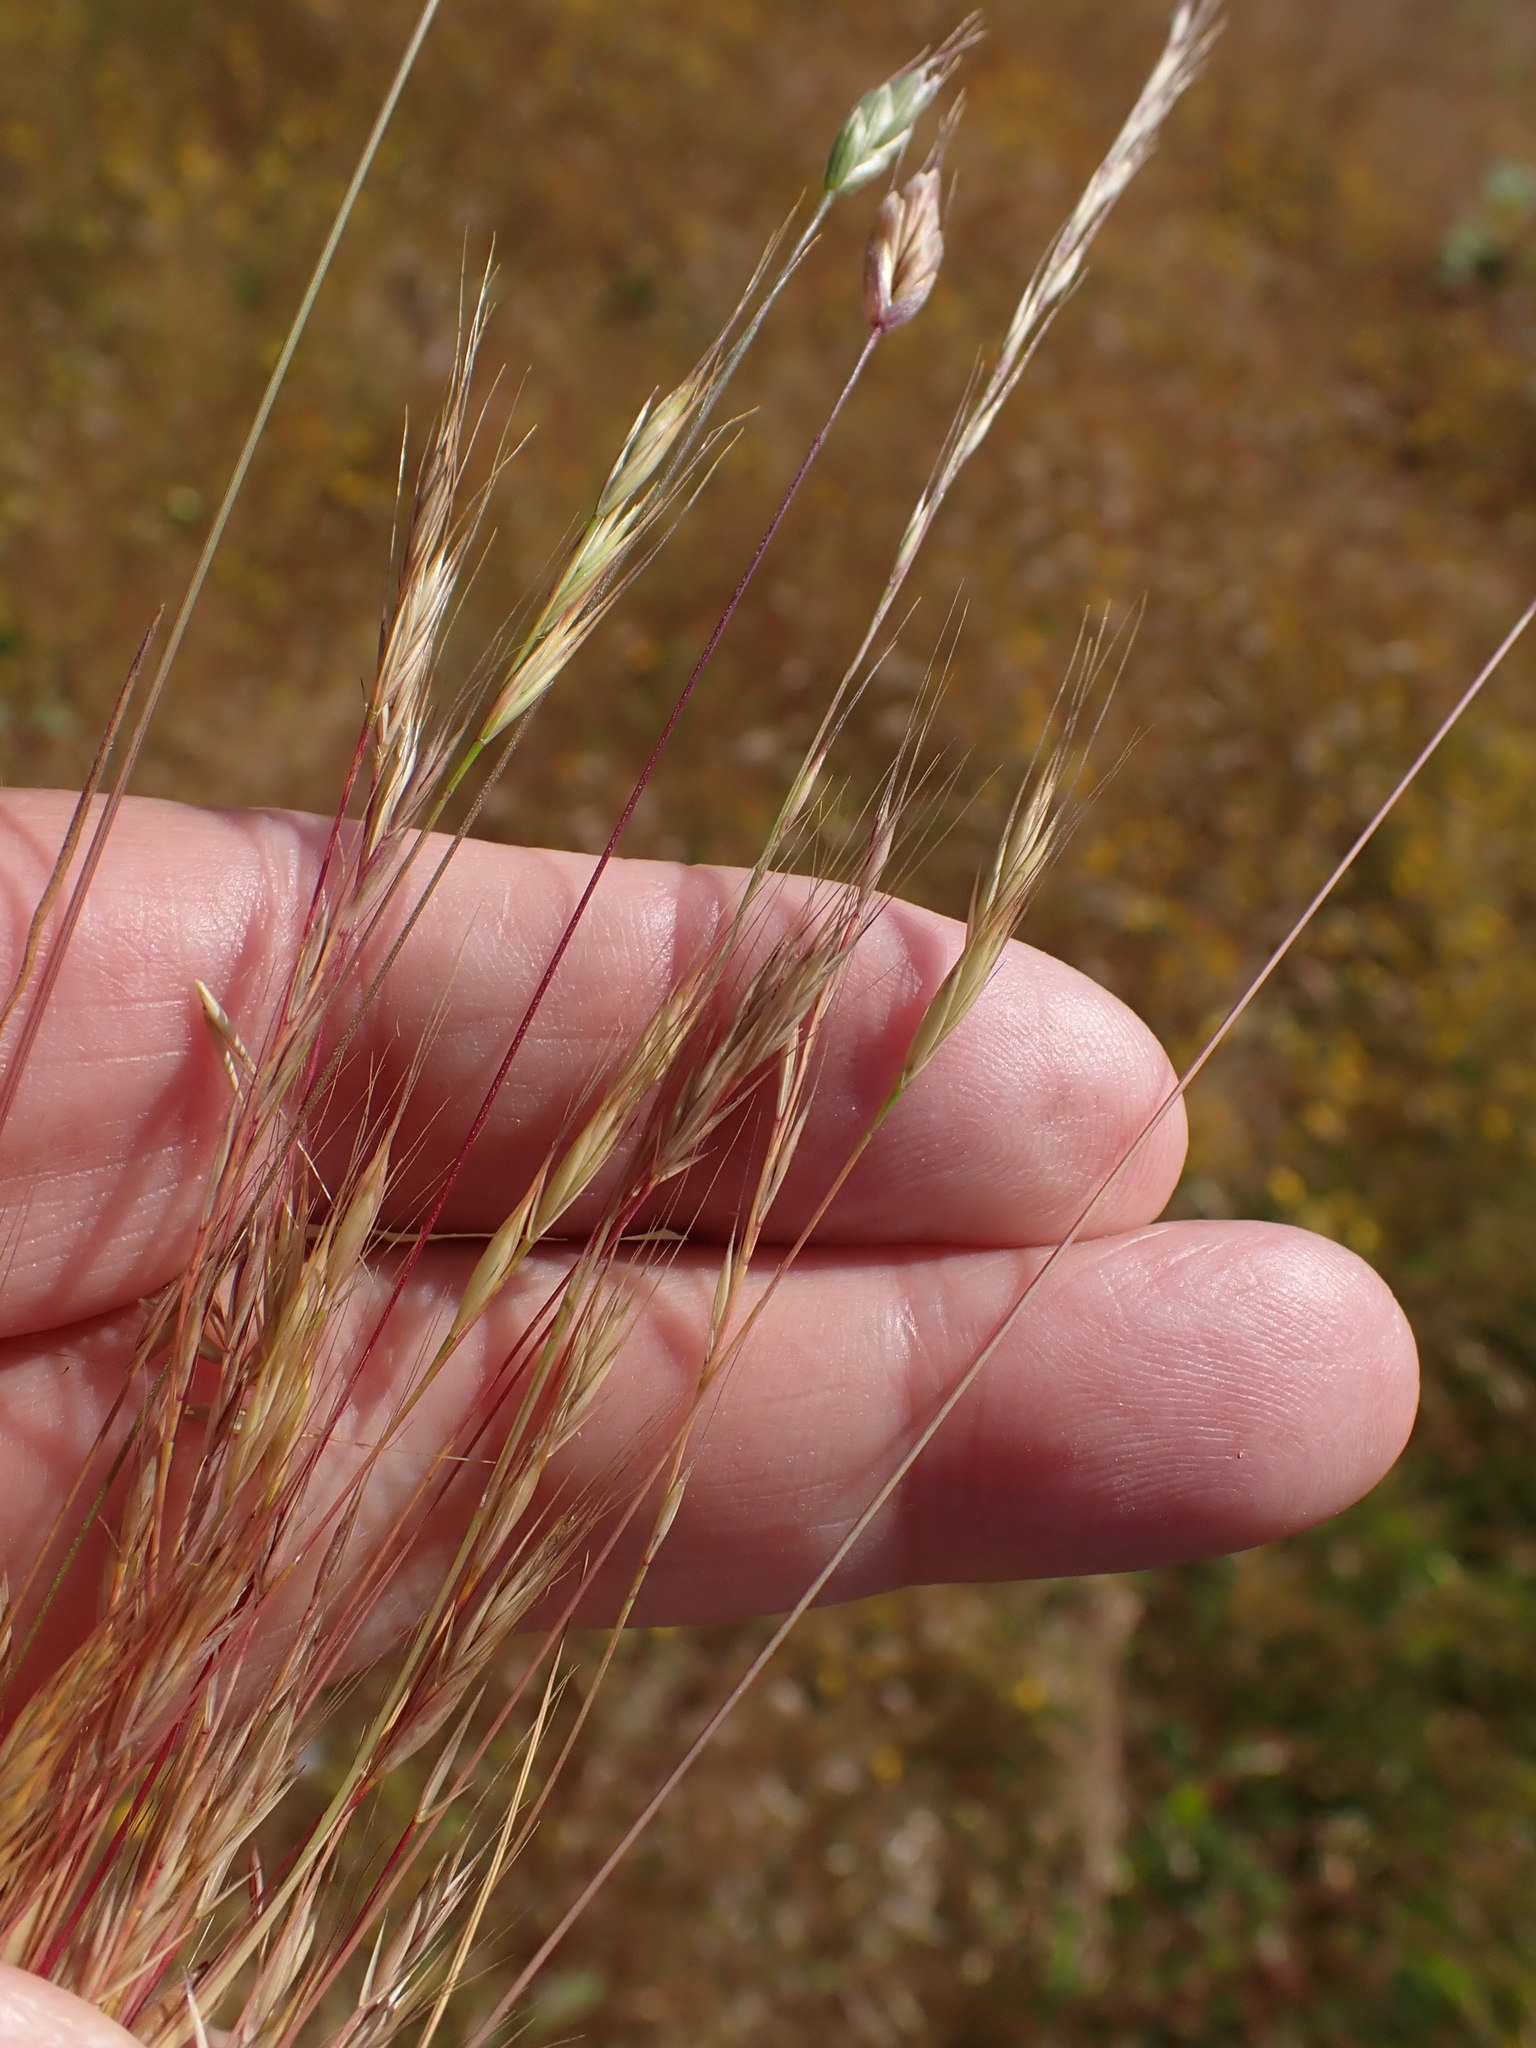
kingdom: Plantae
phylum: Tracheophyta
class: Liliopsida
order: Poales
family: Poaceae
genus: Festuca
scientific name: Festuca bromoides
